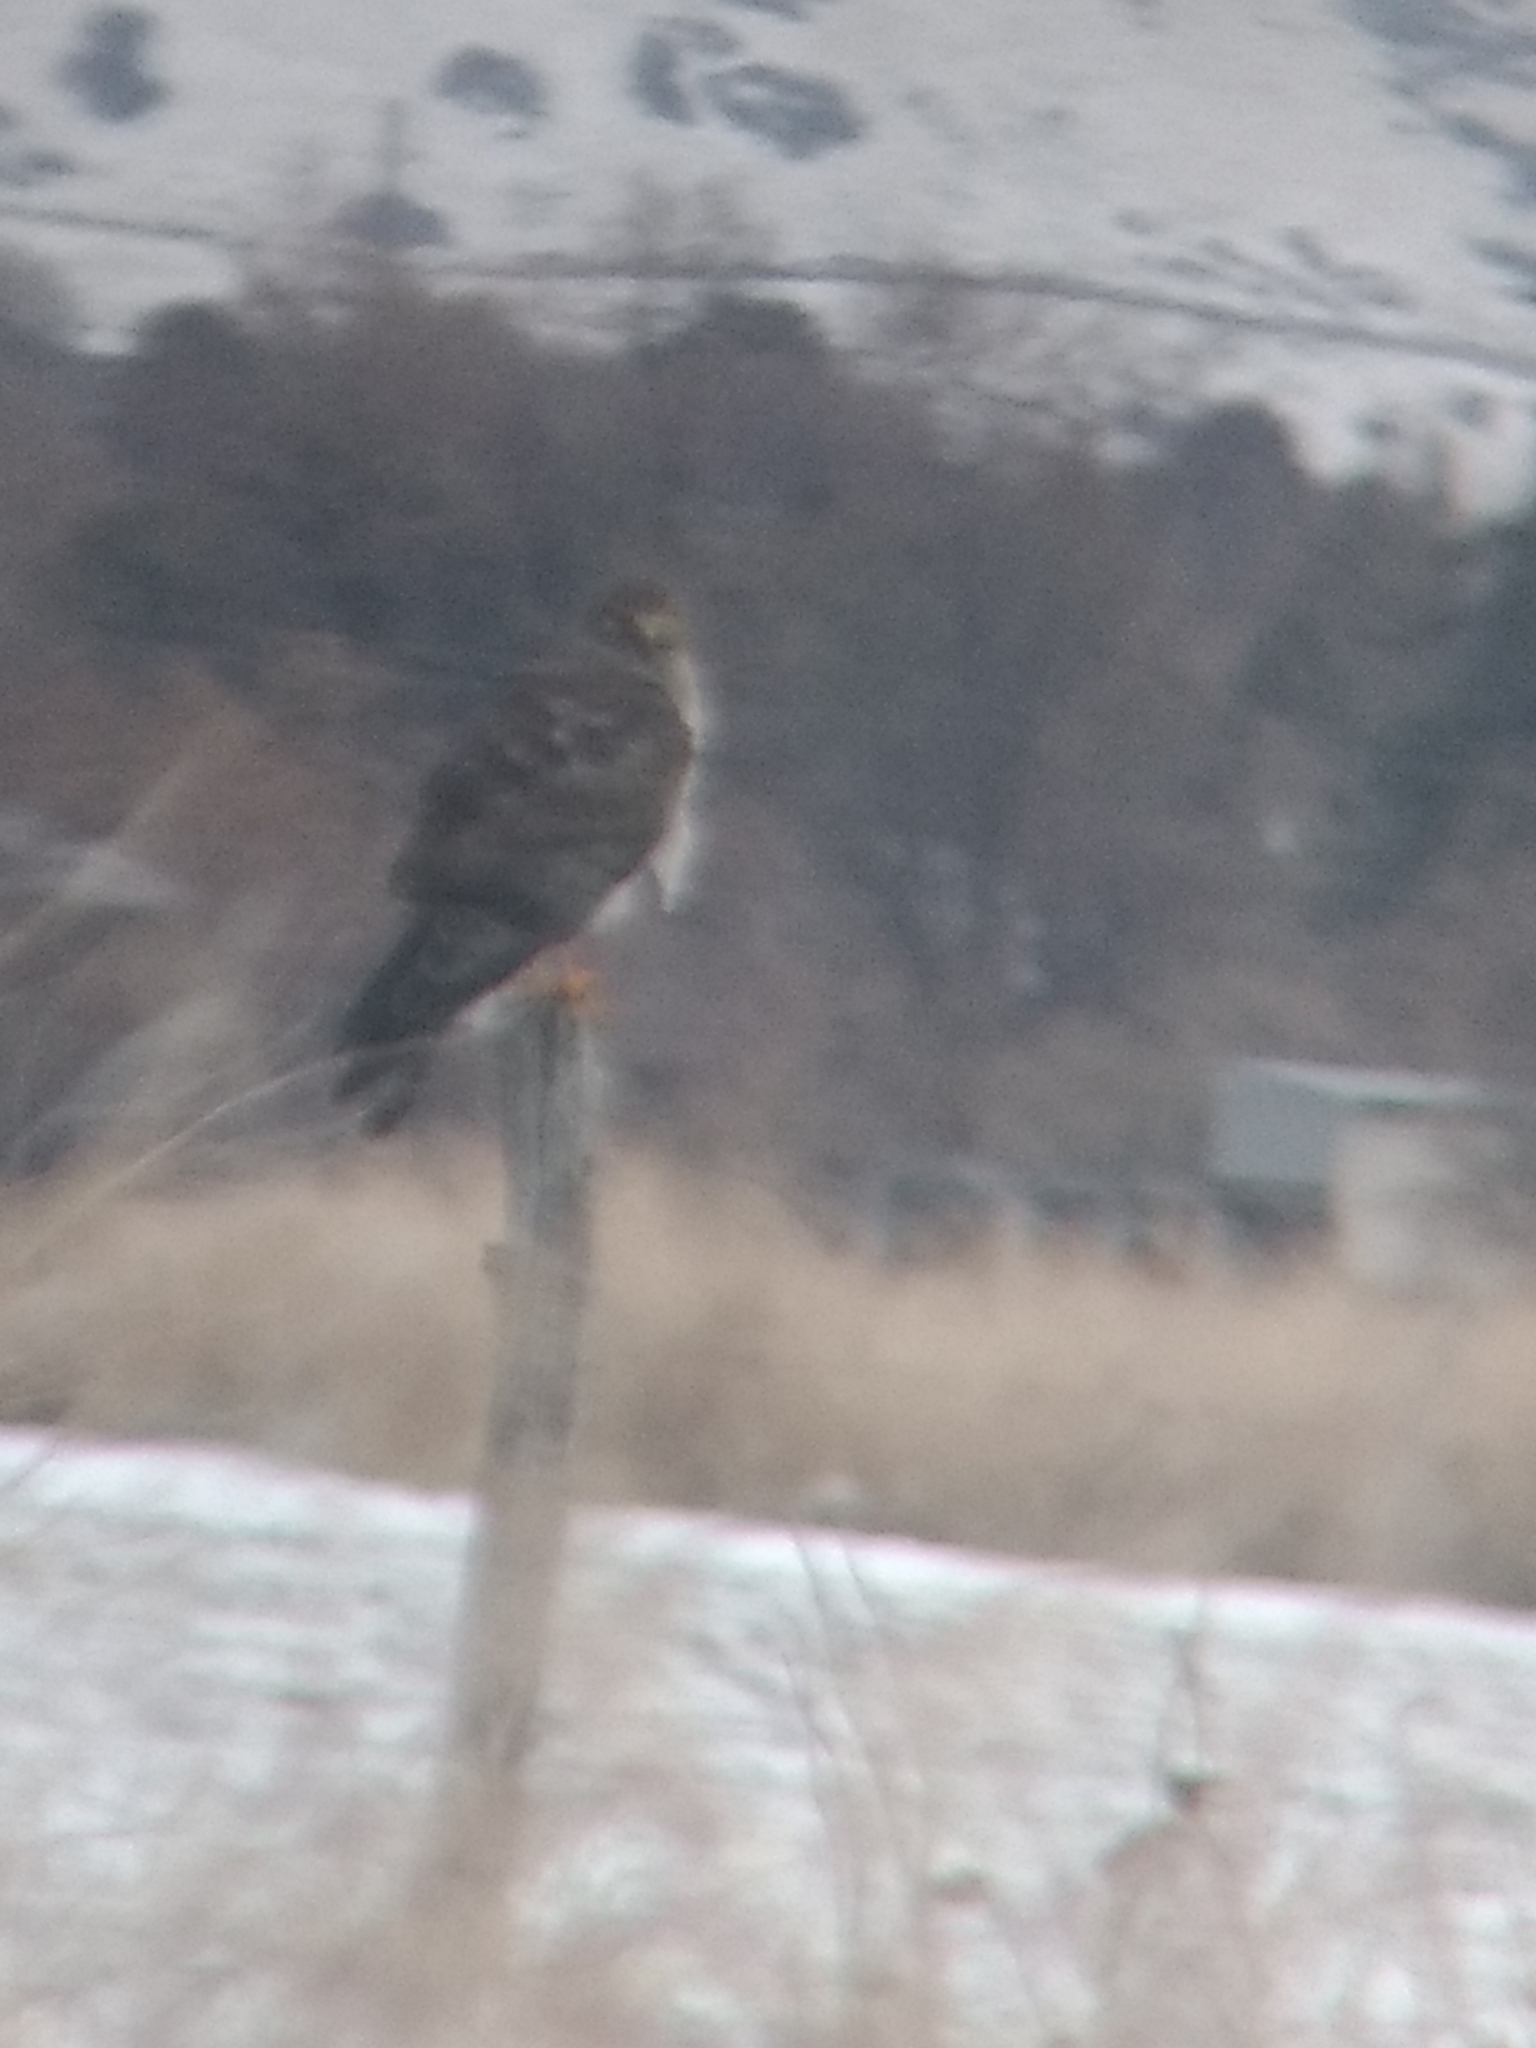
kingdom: Animalia
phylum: Chordata
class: Aves
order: Accipitriformes
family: Accipitridae
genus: Circus
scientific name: Circus cyaneus
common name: Hen harrier
